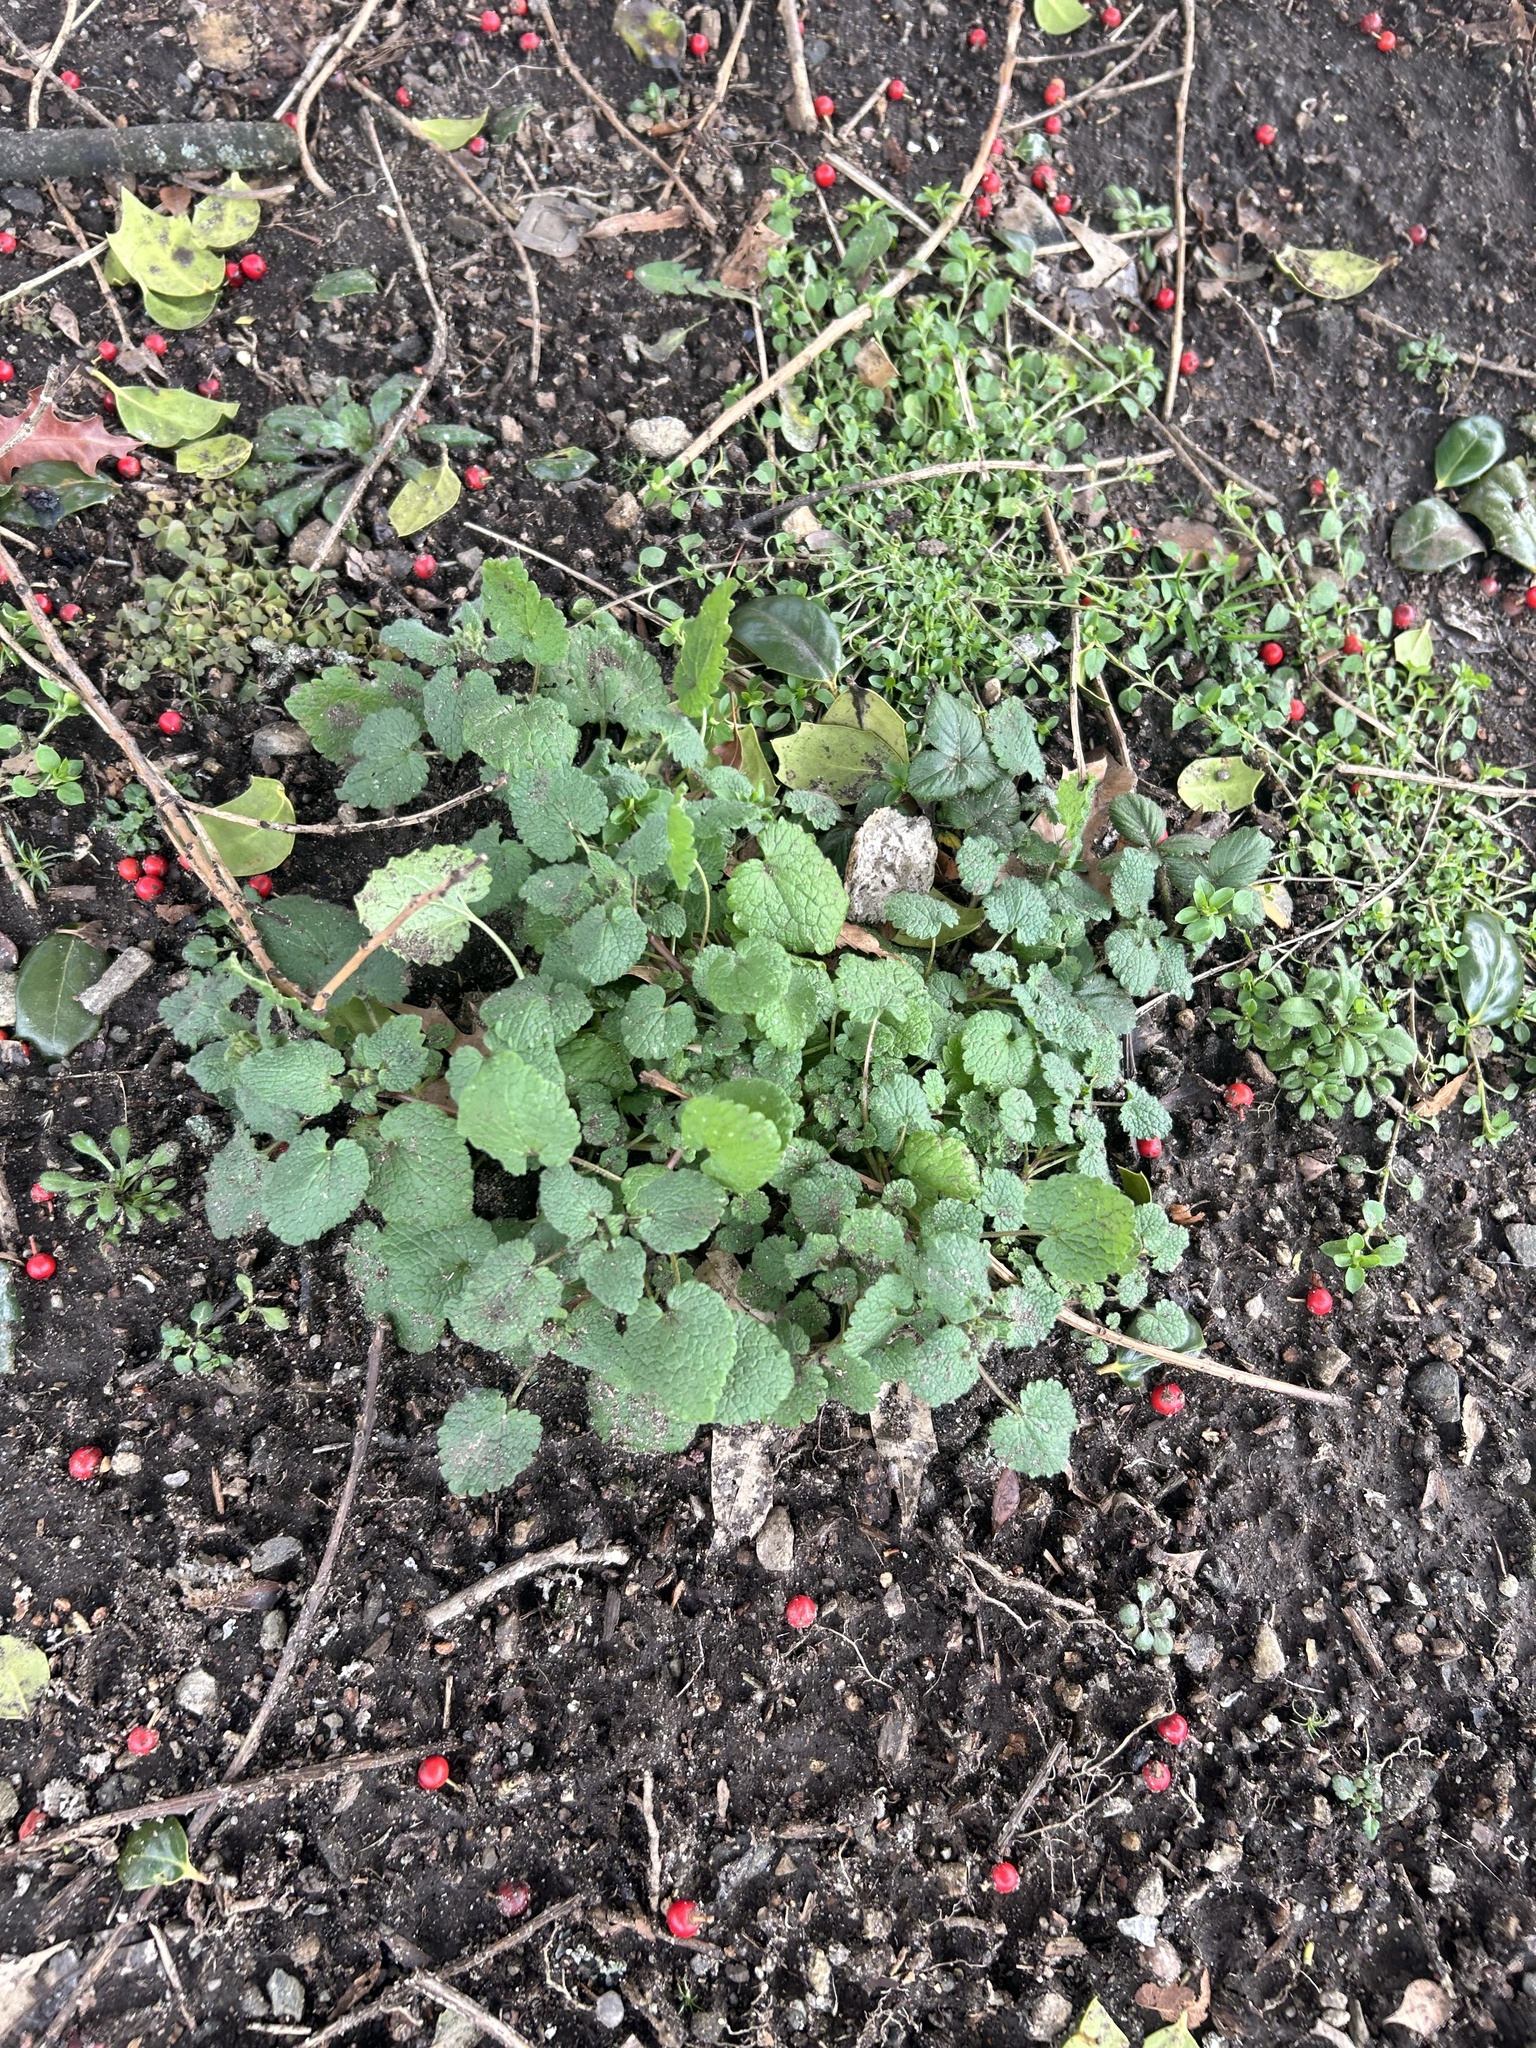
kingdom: Plantae
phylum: Tracheophyta
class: Magnoliopsida
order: Lamiales
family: Lamiaceae
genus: Lamium
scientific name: Lamium purpureum
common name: Red dead-nettle
